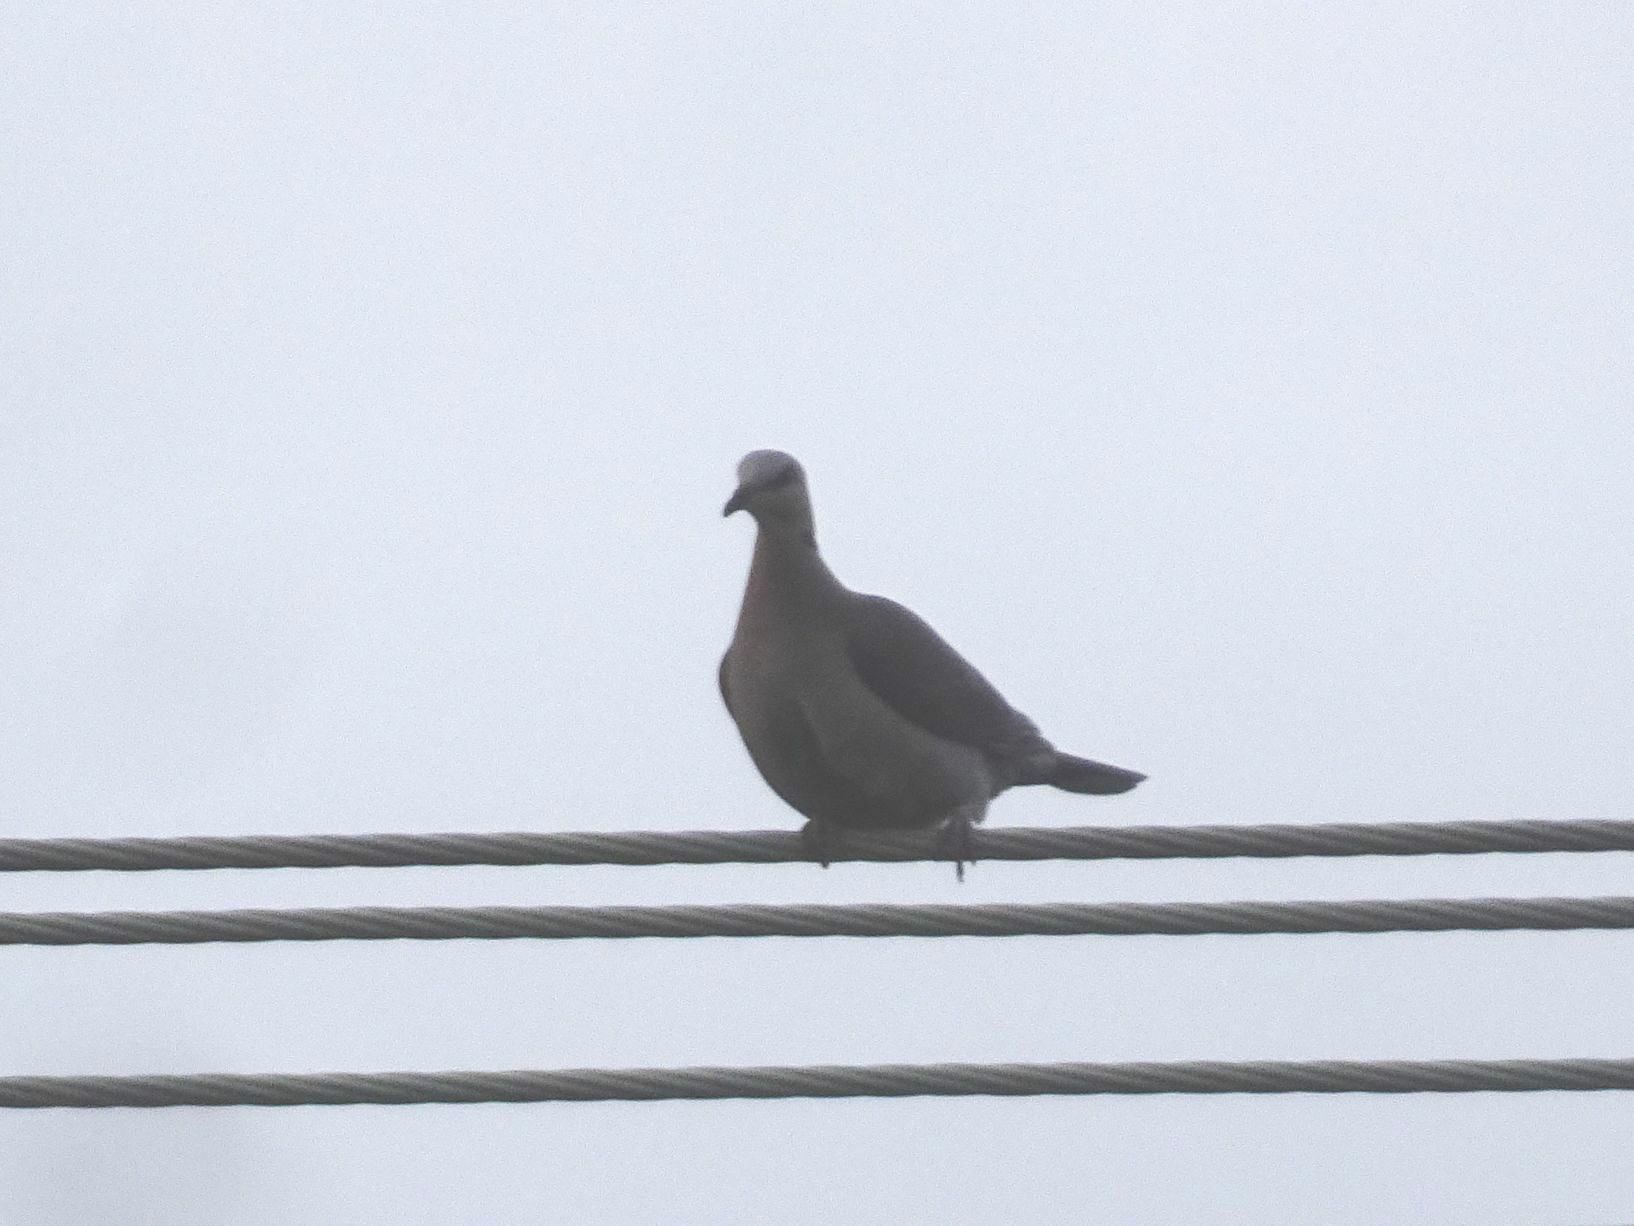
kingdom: Animalia
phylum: Chordata
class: Aves
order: Columbiformes
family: Columbidae
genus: Streptopelia
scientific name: Streptopelia semitorquata
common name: Red-eyed dove
